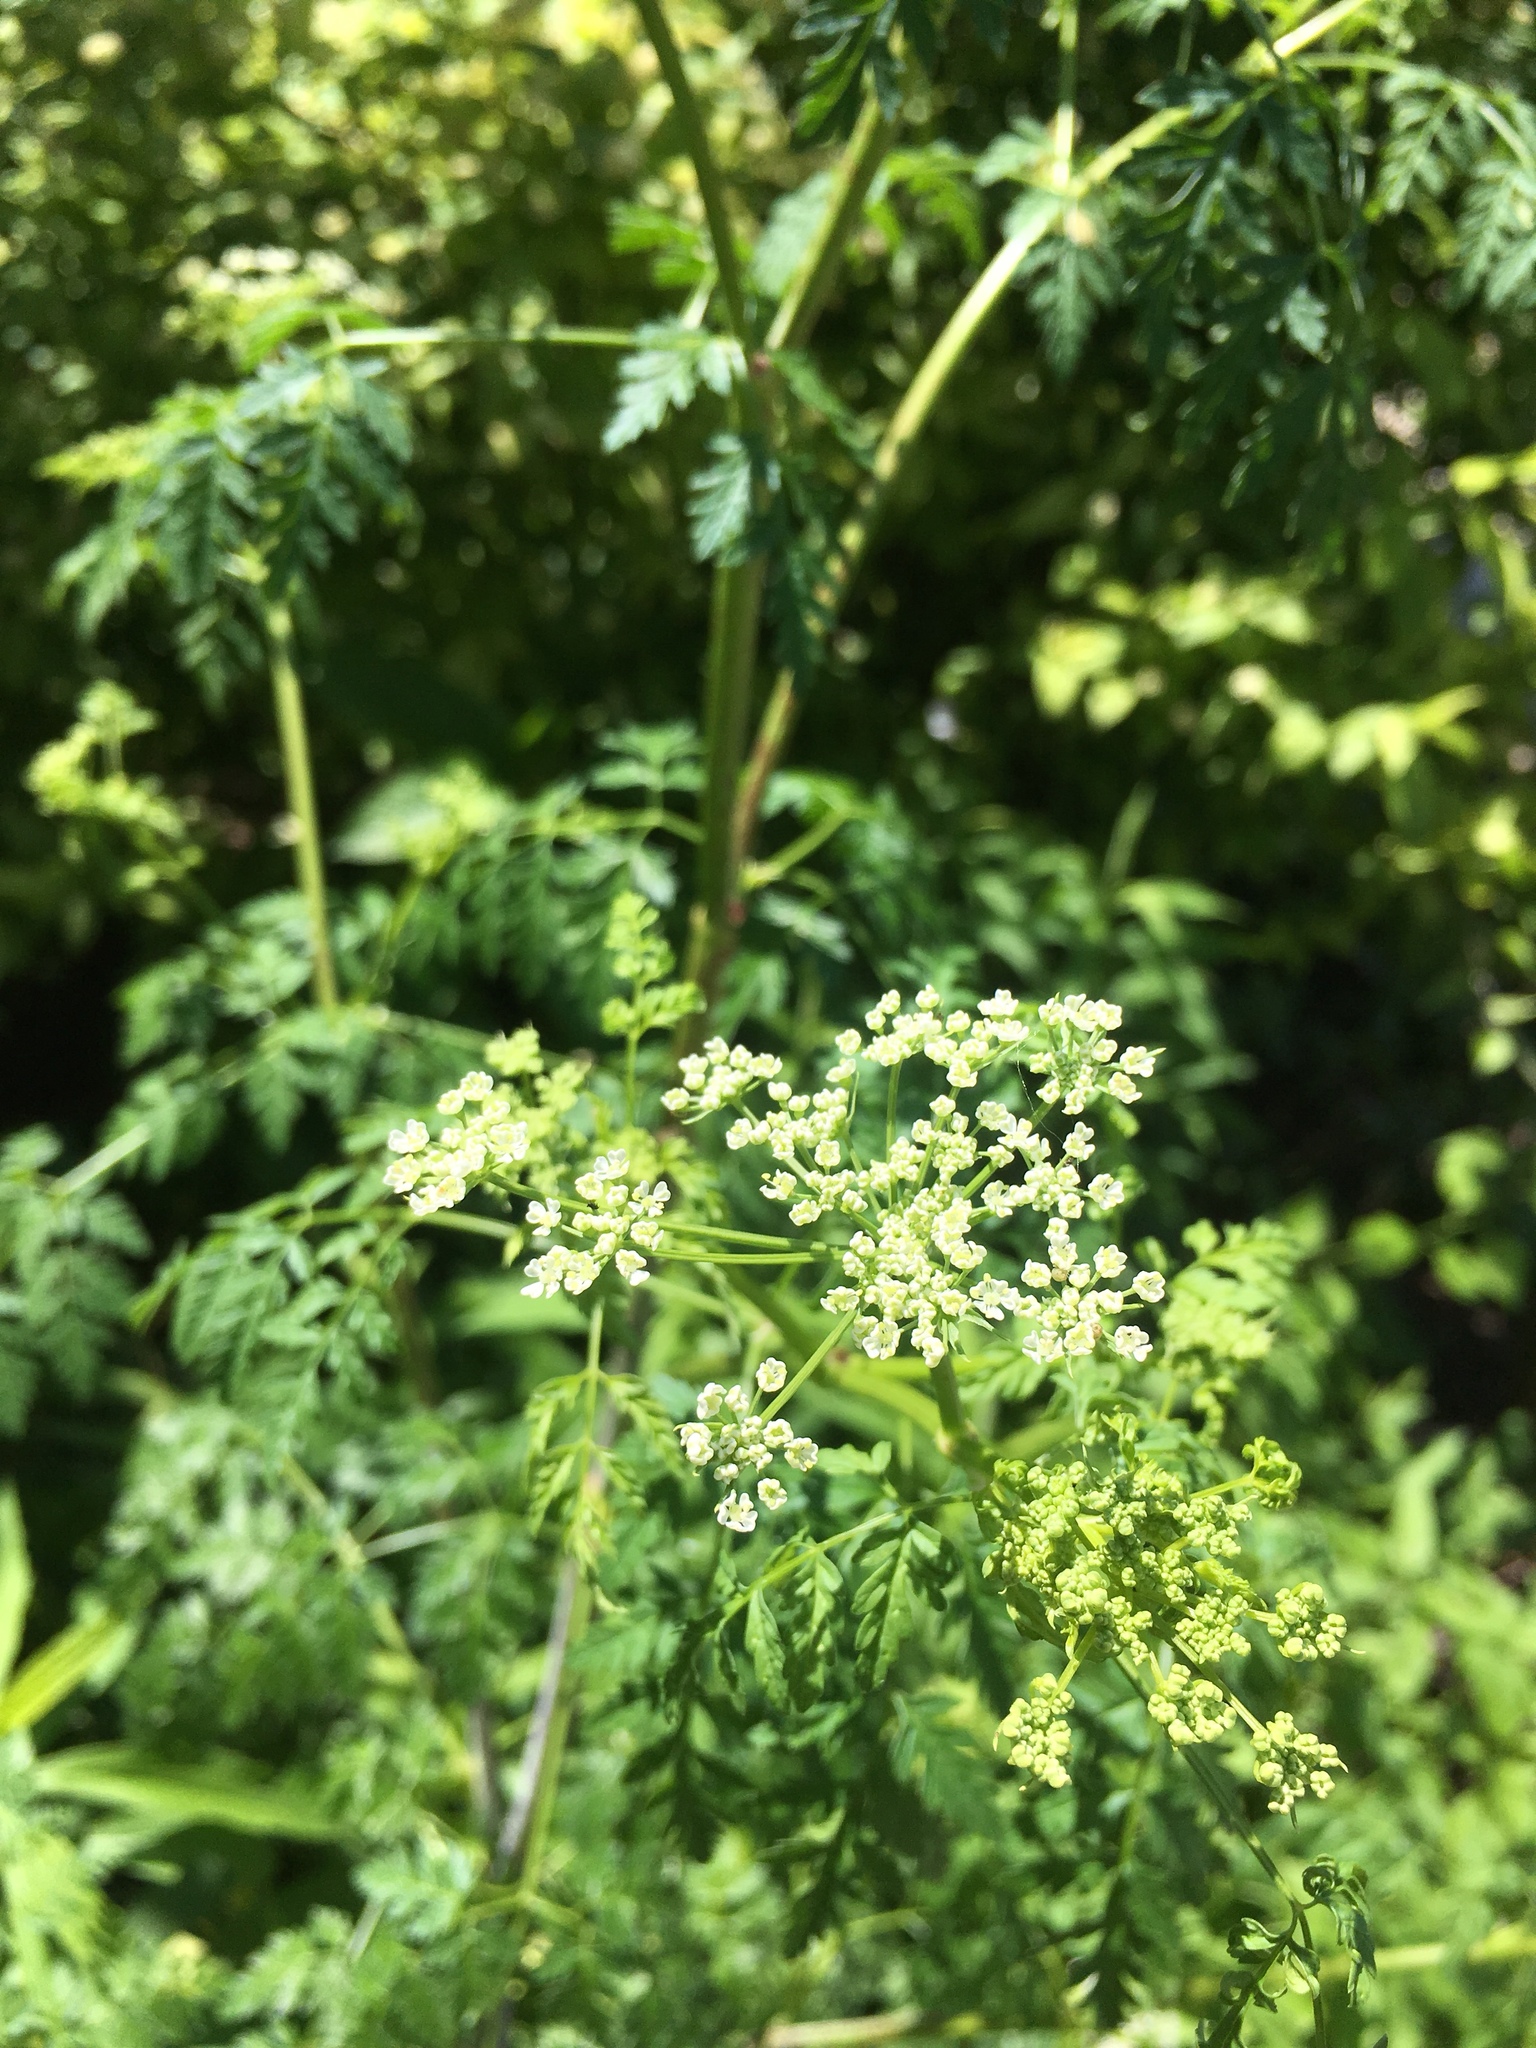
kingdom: Plantae
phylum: Tracheophyta
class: Magnoliopsida
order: Apiales
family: Apiaceae
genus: Conium
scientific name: Conium maculatum
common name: Hemlock
